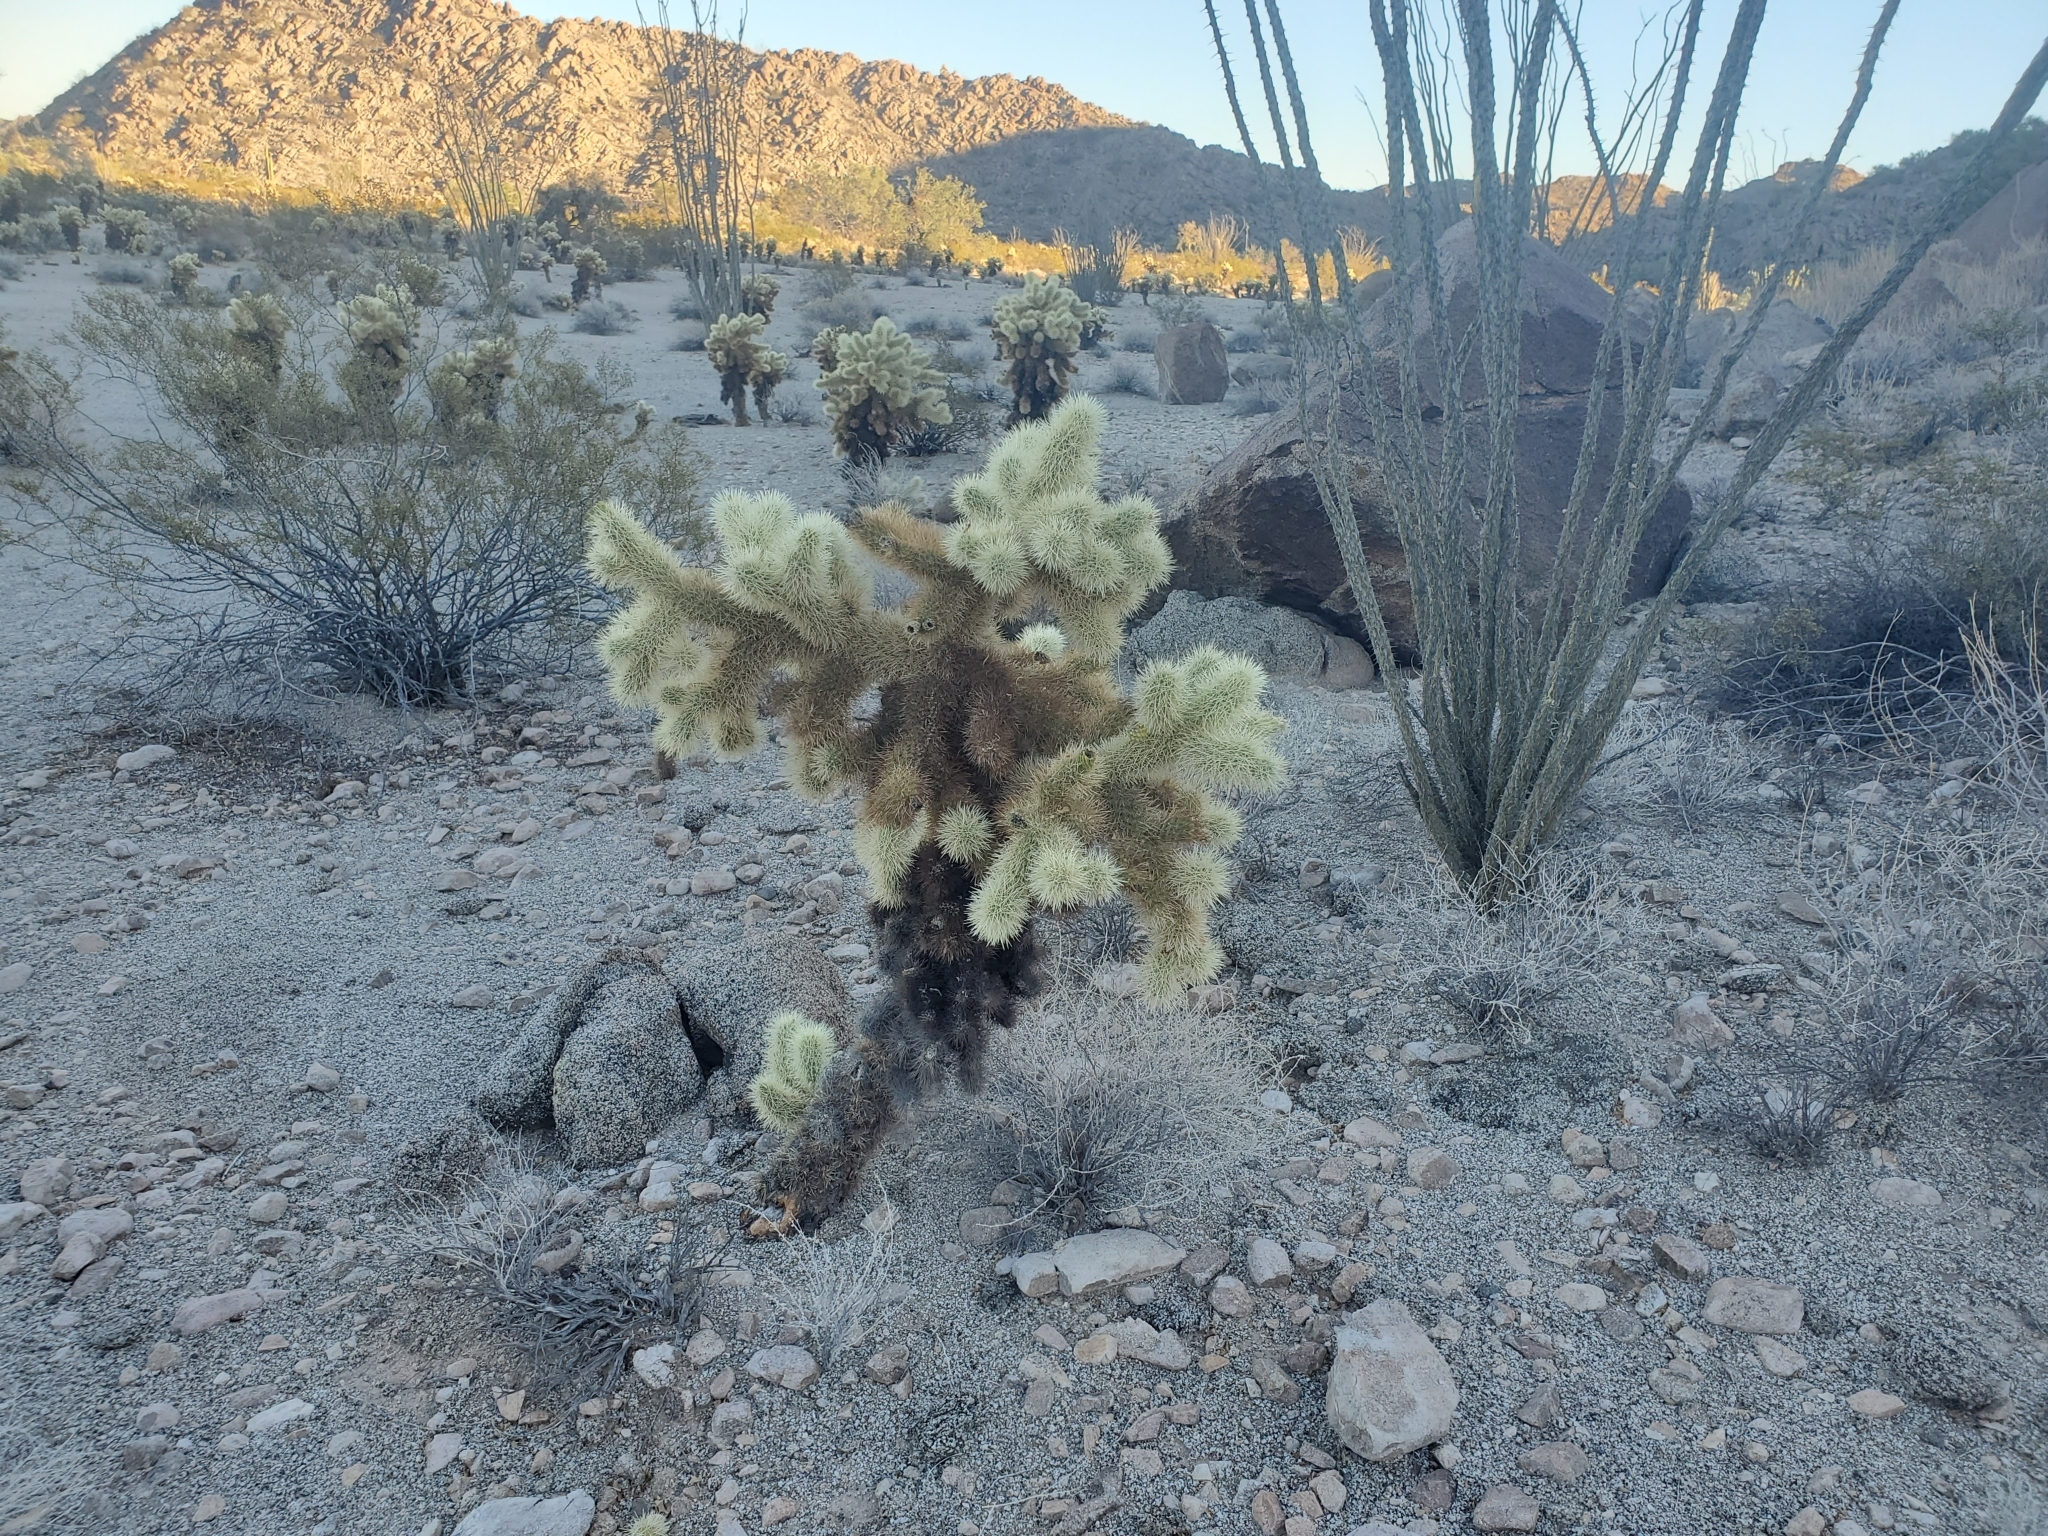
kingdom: Plantae
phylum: Tracheophyta
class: Magnoliopsida
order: Caryophyllales
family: Cactaceae
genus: Cylindropuntia
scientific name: Cylindropuntia fosbergii
